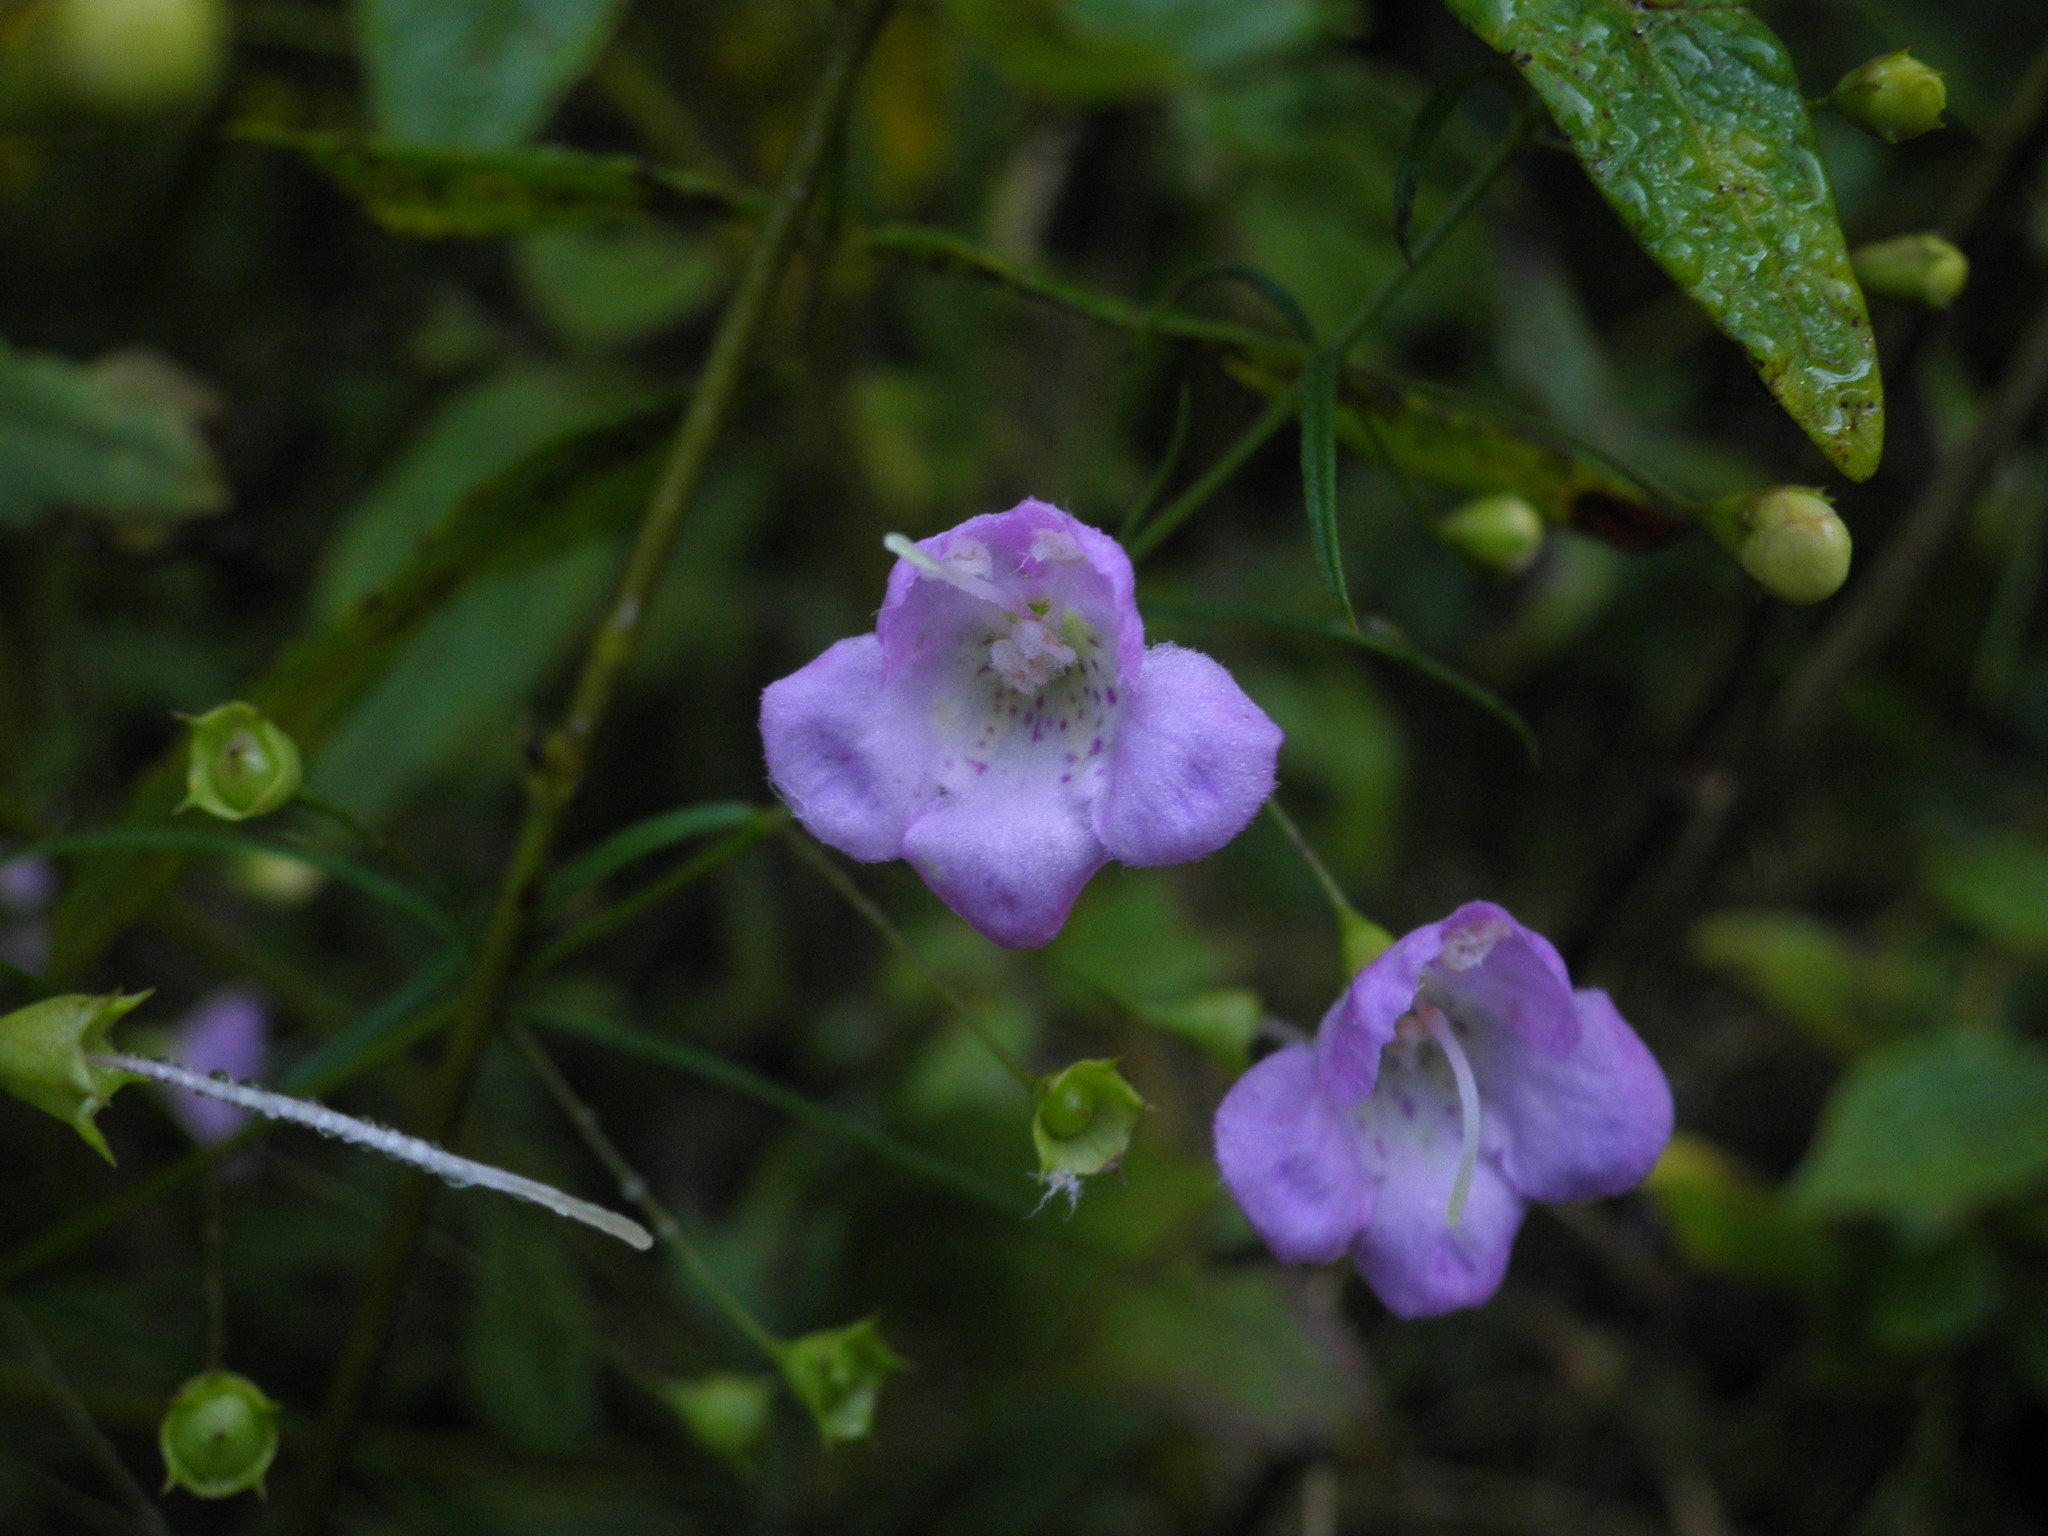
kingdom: Plantae
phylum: Tracheophyta
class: Magnoliopsida
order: Lamiales
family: Orobanchaceae
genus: Agalinis
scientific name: Agalinis tenuifolia
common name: Slender agalinis
